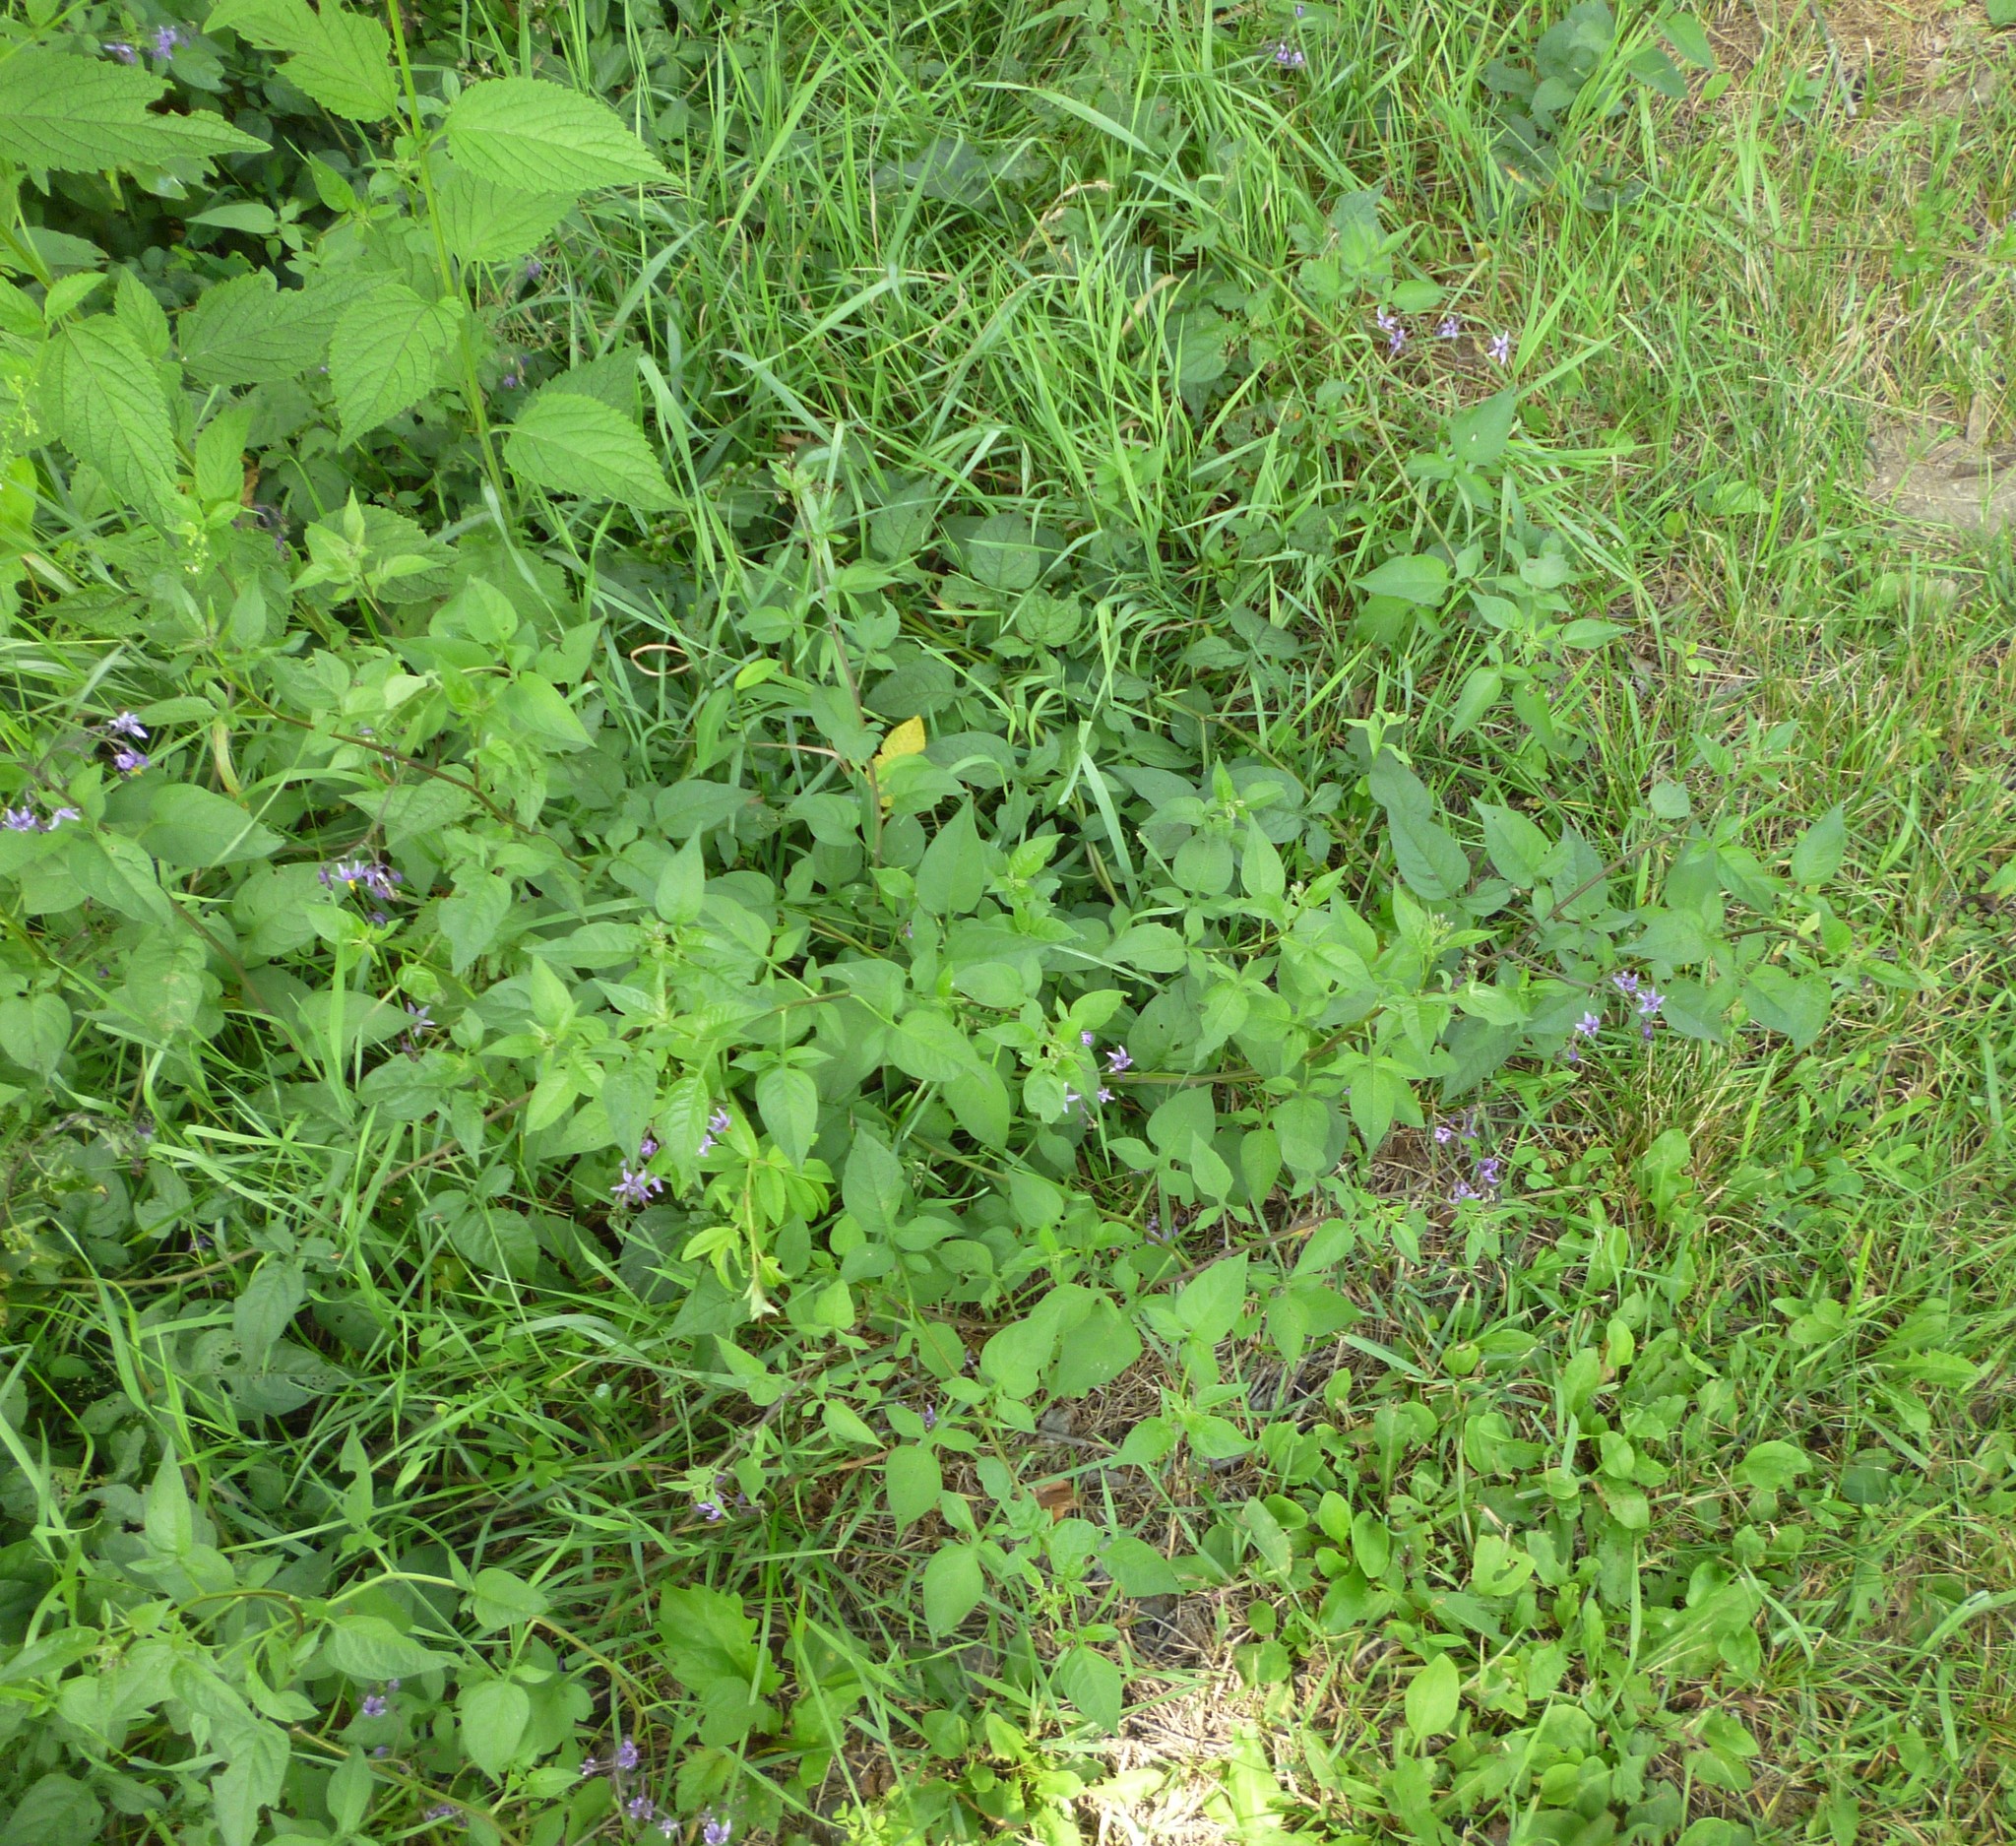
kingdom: Plantae
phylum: Tracheophyta
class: Magnoliopsida
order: Solanales
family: Solanaceae
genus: Solanum
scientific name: Solanum dulcamara
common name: Climbing nightshade
